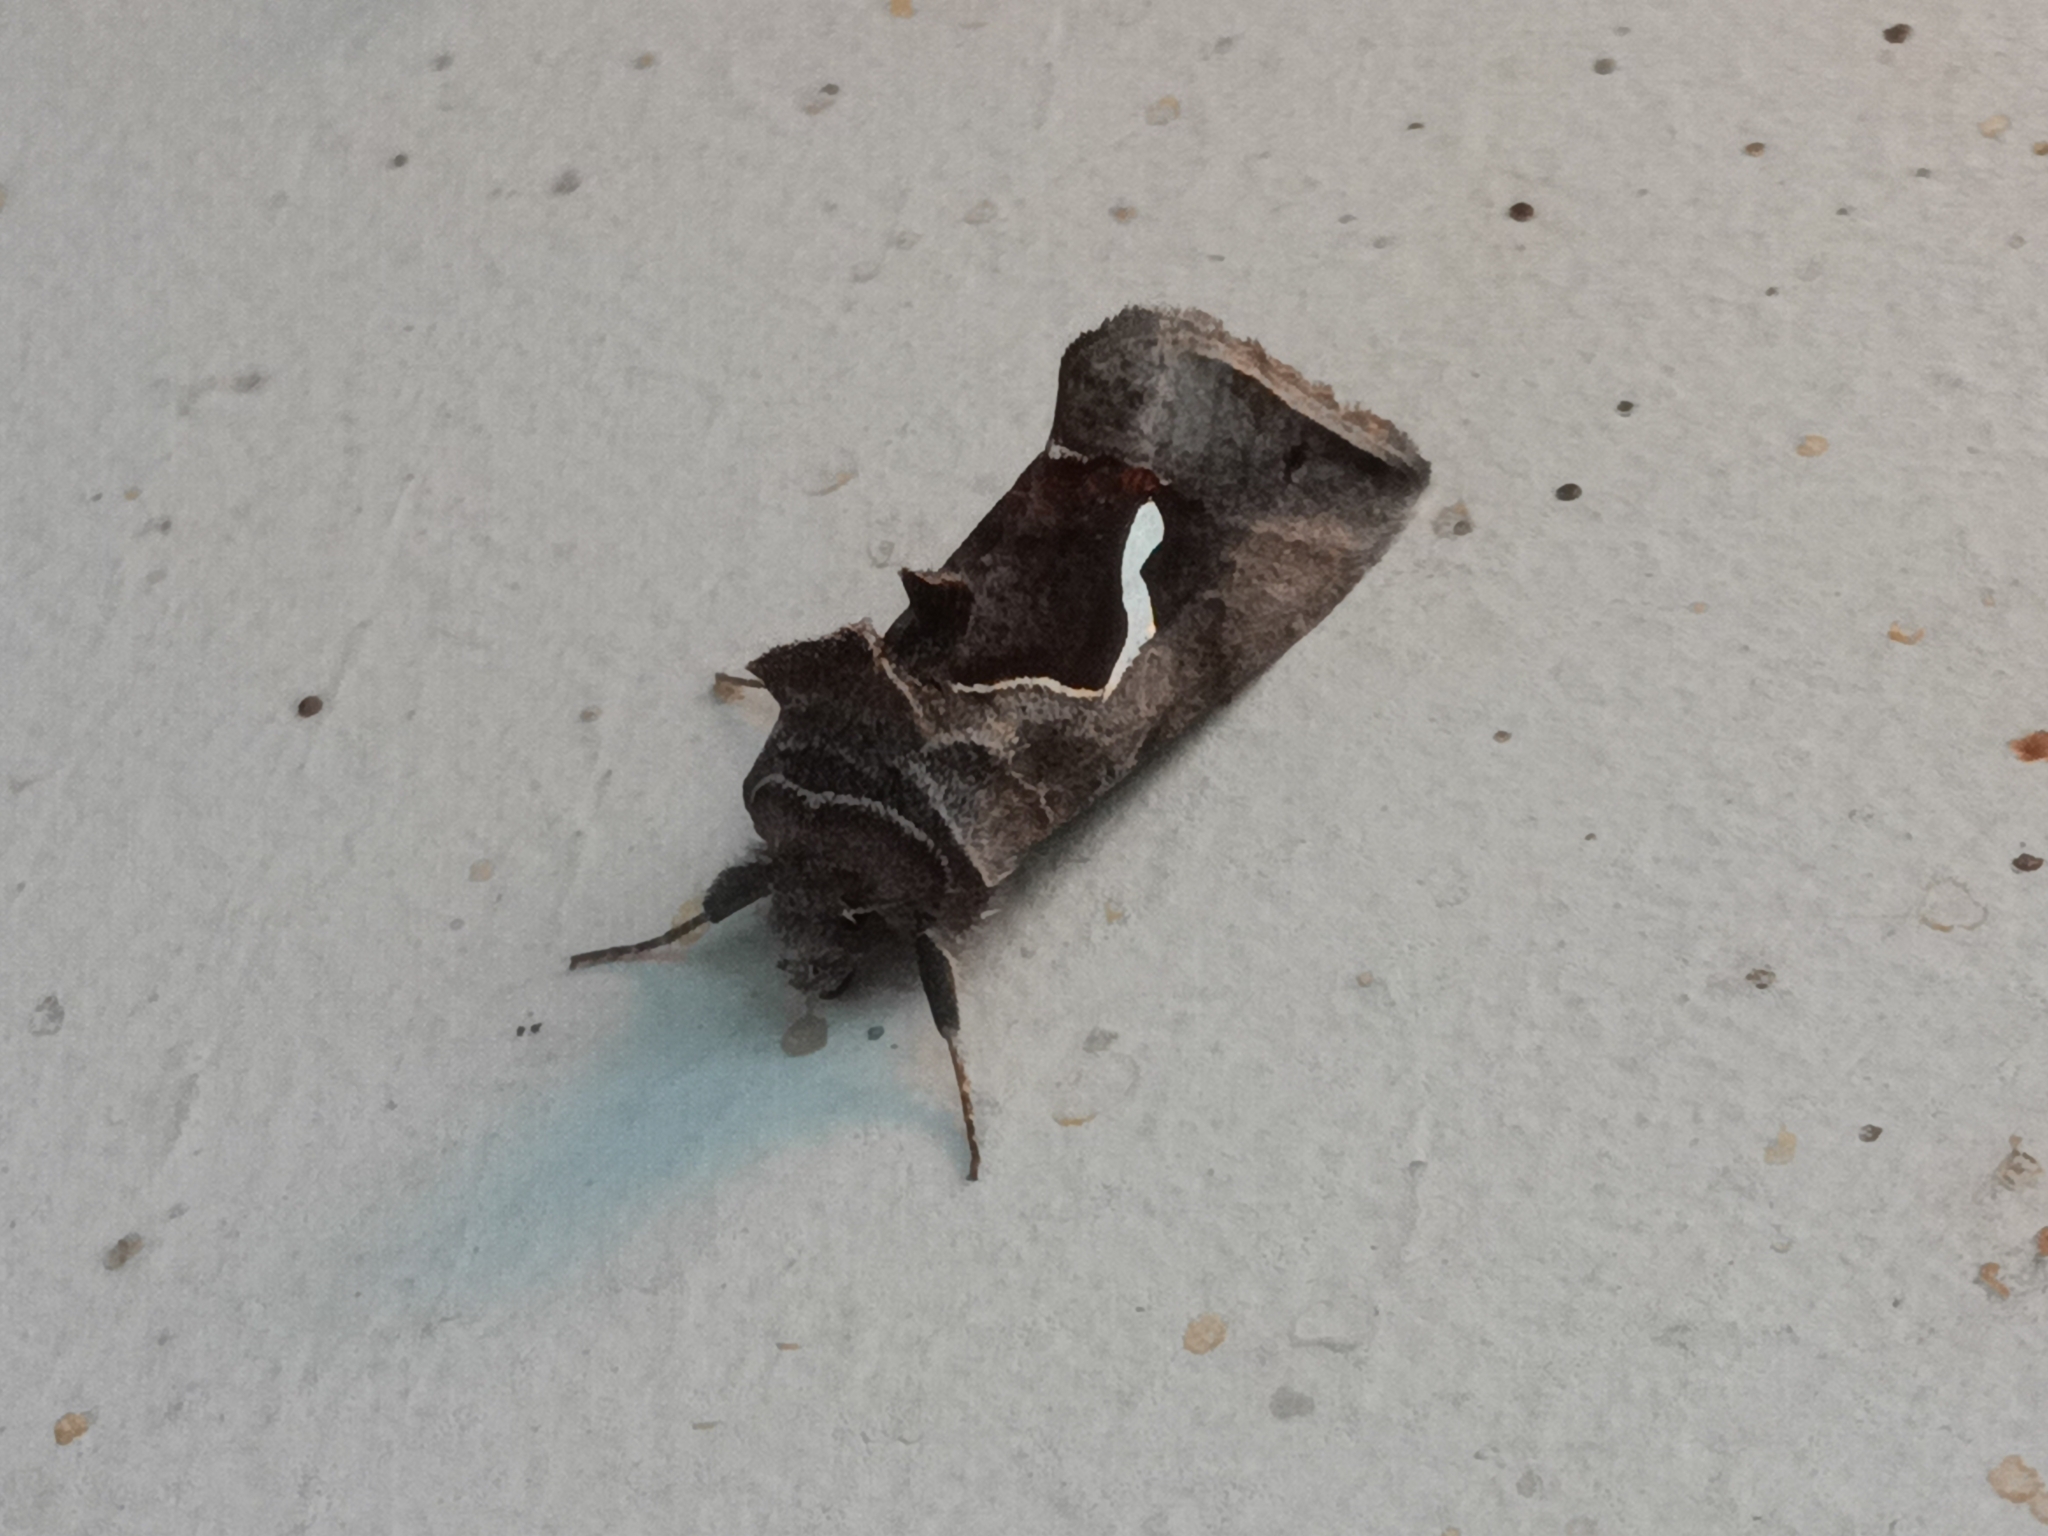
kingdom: Animalia
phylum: Arthropoda
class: Insecta
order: Lepidoptera
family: Noctuidae
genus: Macdunnoughia
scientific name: Macdunnoughia confusa
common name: Dewick's plusia
